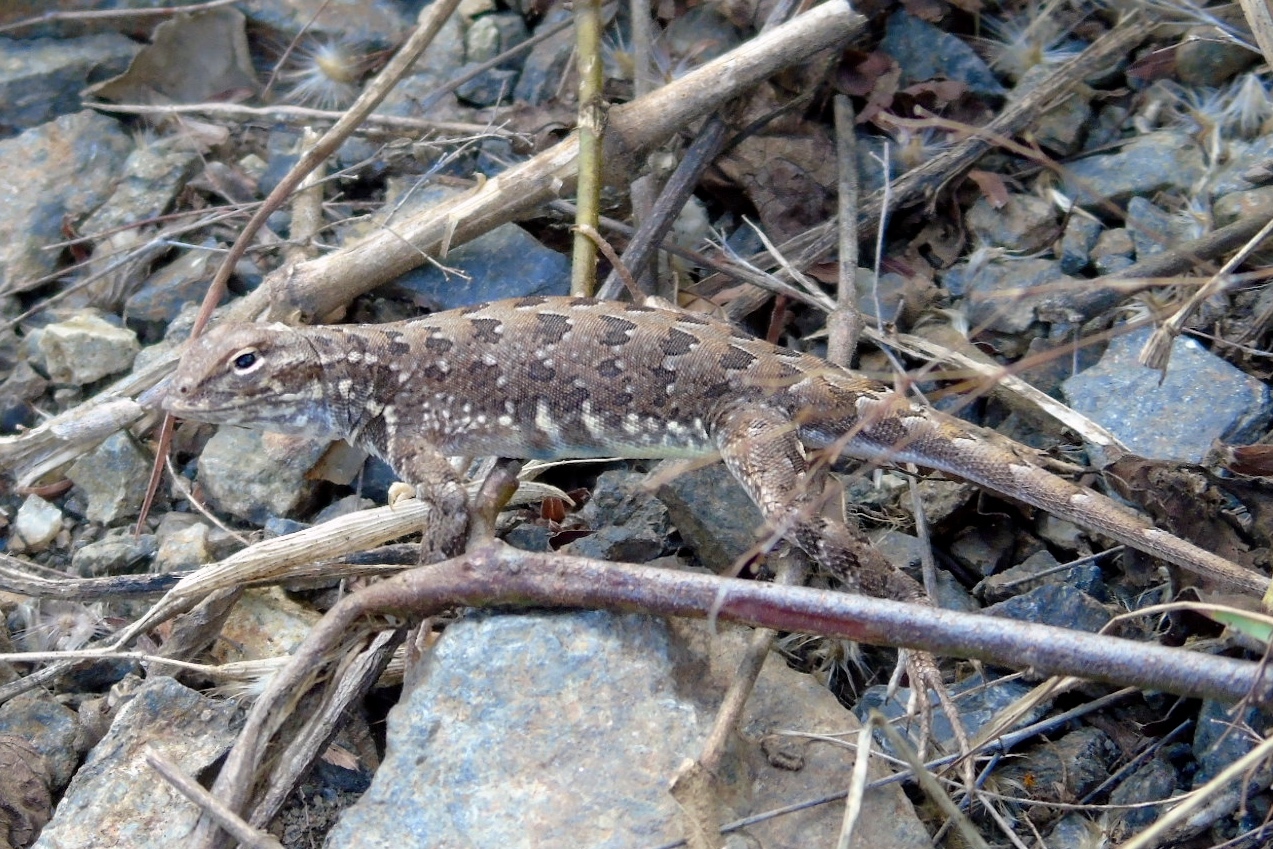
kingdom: Animalia
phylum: Chordata
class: Squamata
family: Phrynosomatidae
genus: Holbrookia
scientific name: Holbrookia elegans
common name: Elegant earless lizard
